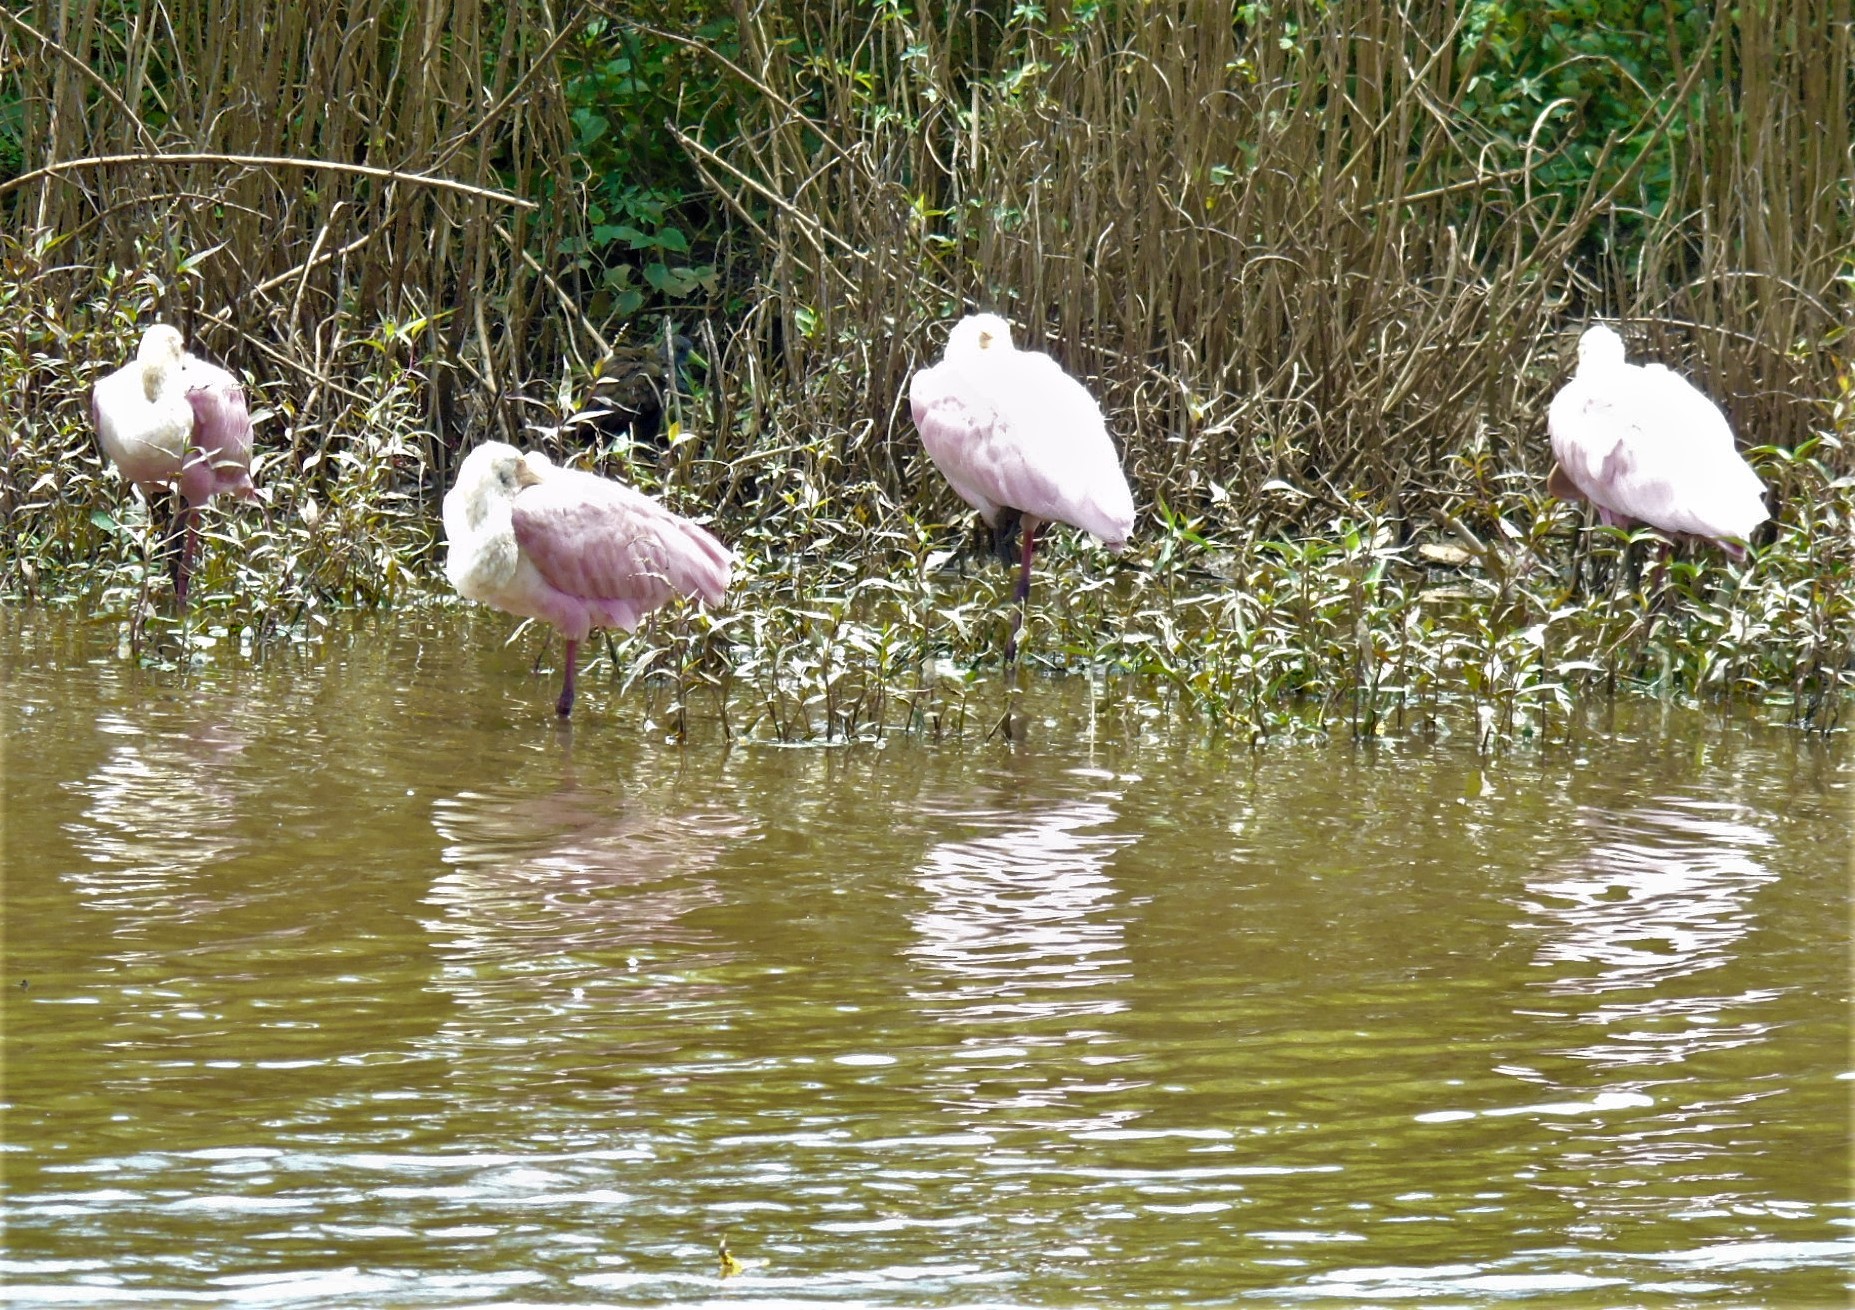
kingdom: Animalia
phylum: Chordata
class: Aves
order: Pelecaniformes
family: Threskiornithidae
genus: Platalea
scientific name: Platalea ajaja
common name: Roseate spoonbill
